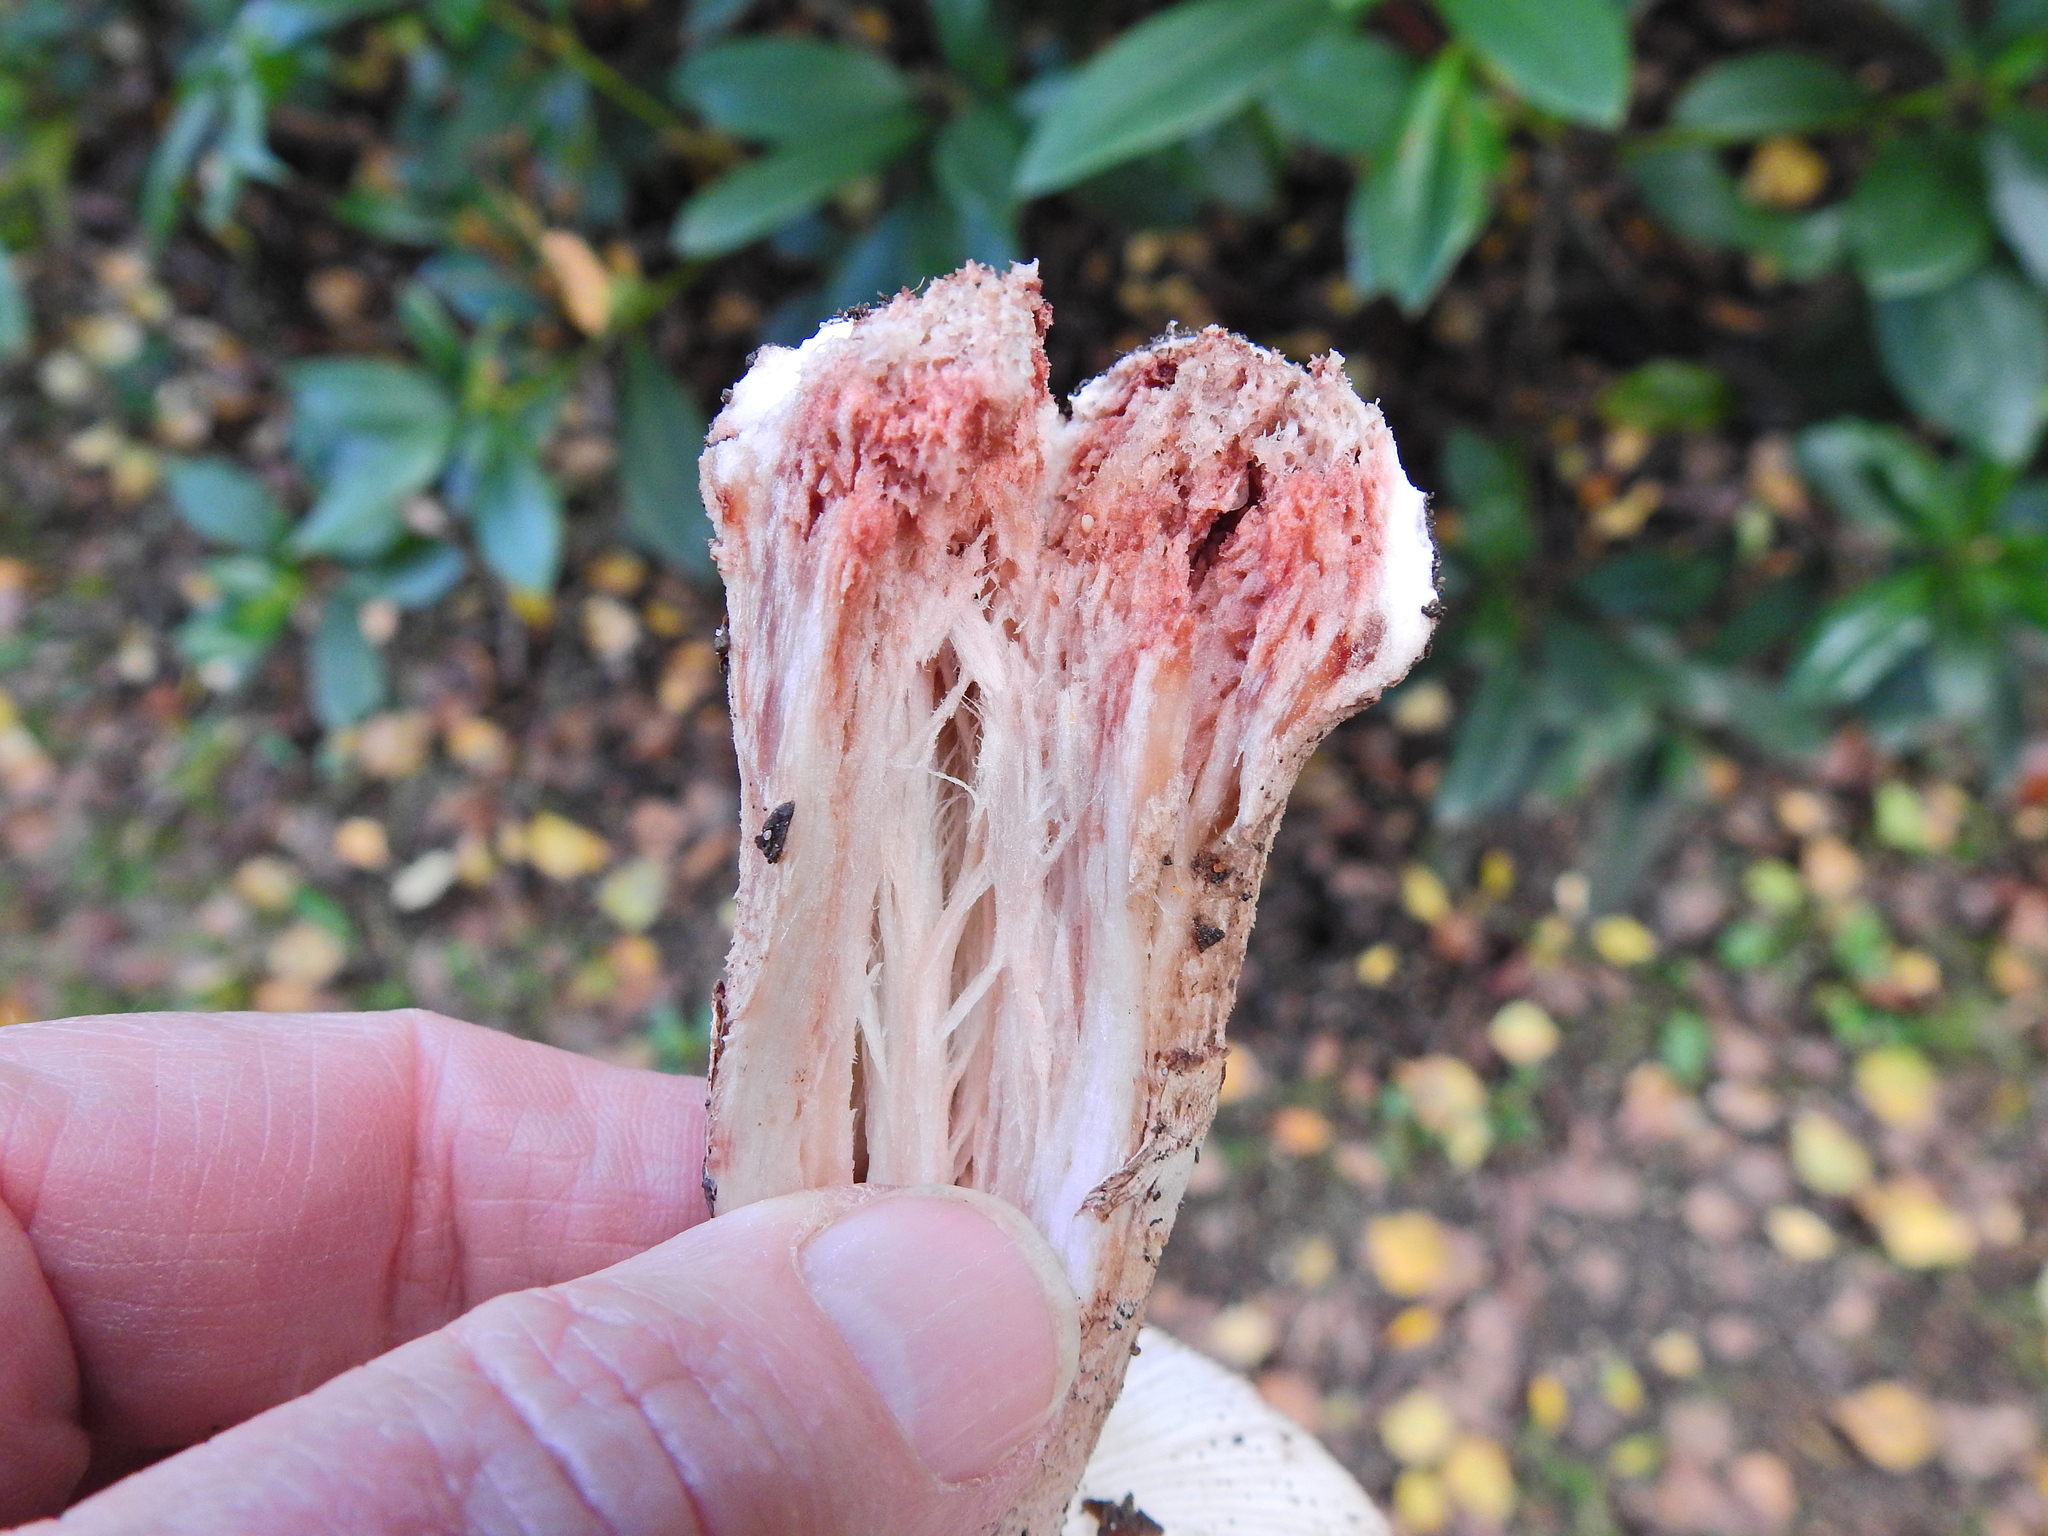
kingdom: Fungi
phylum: Basidiomycota
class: Agaricomycetes
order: Agaricales
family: Amanitaceae
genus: Amanita
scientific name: Amanita rubescens
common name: Blusher
